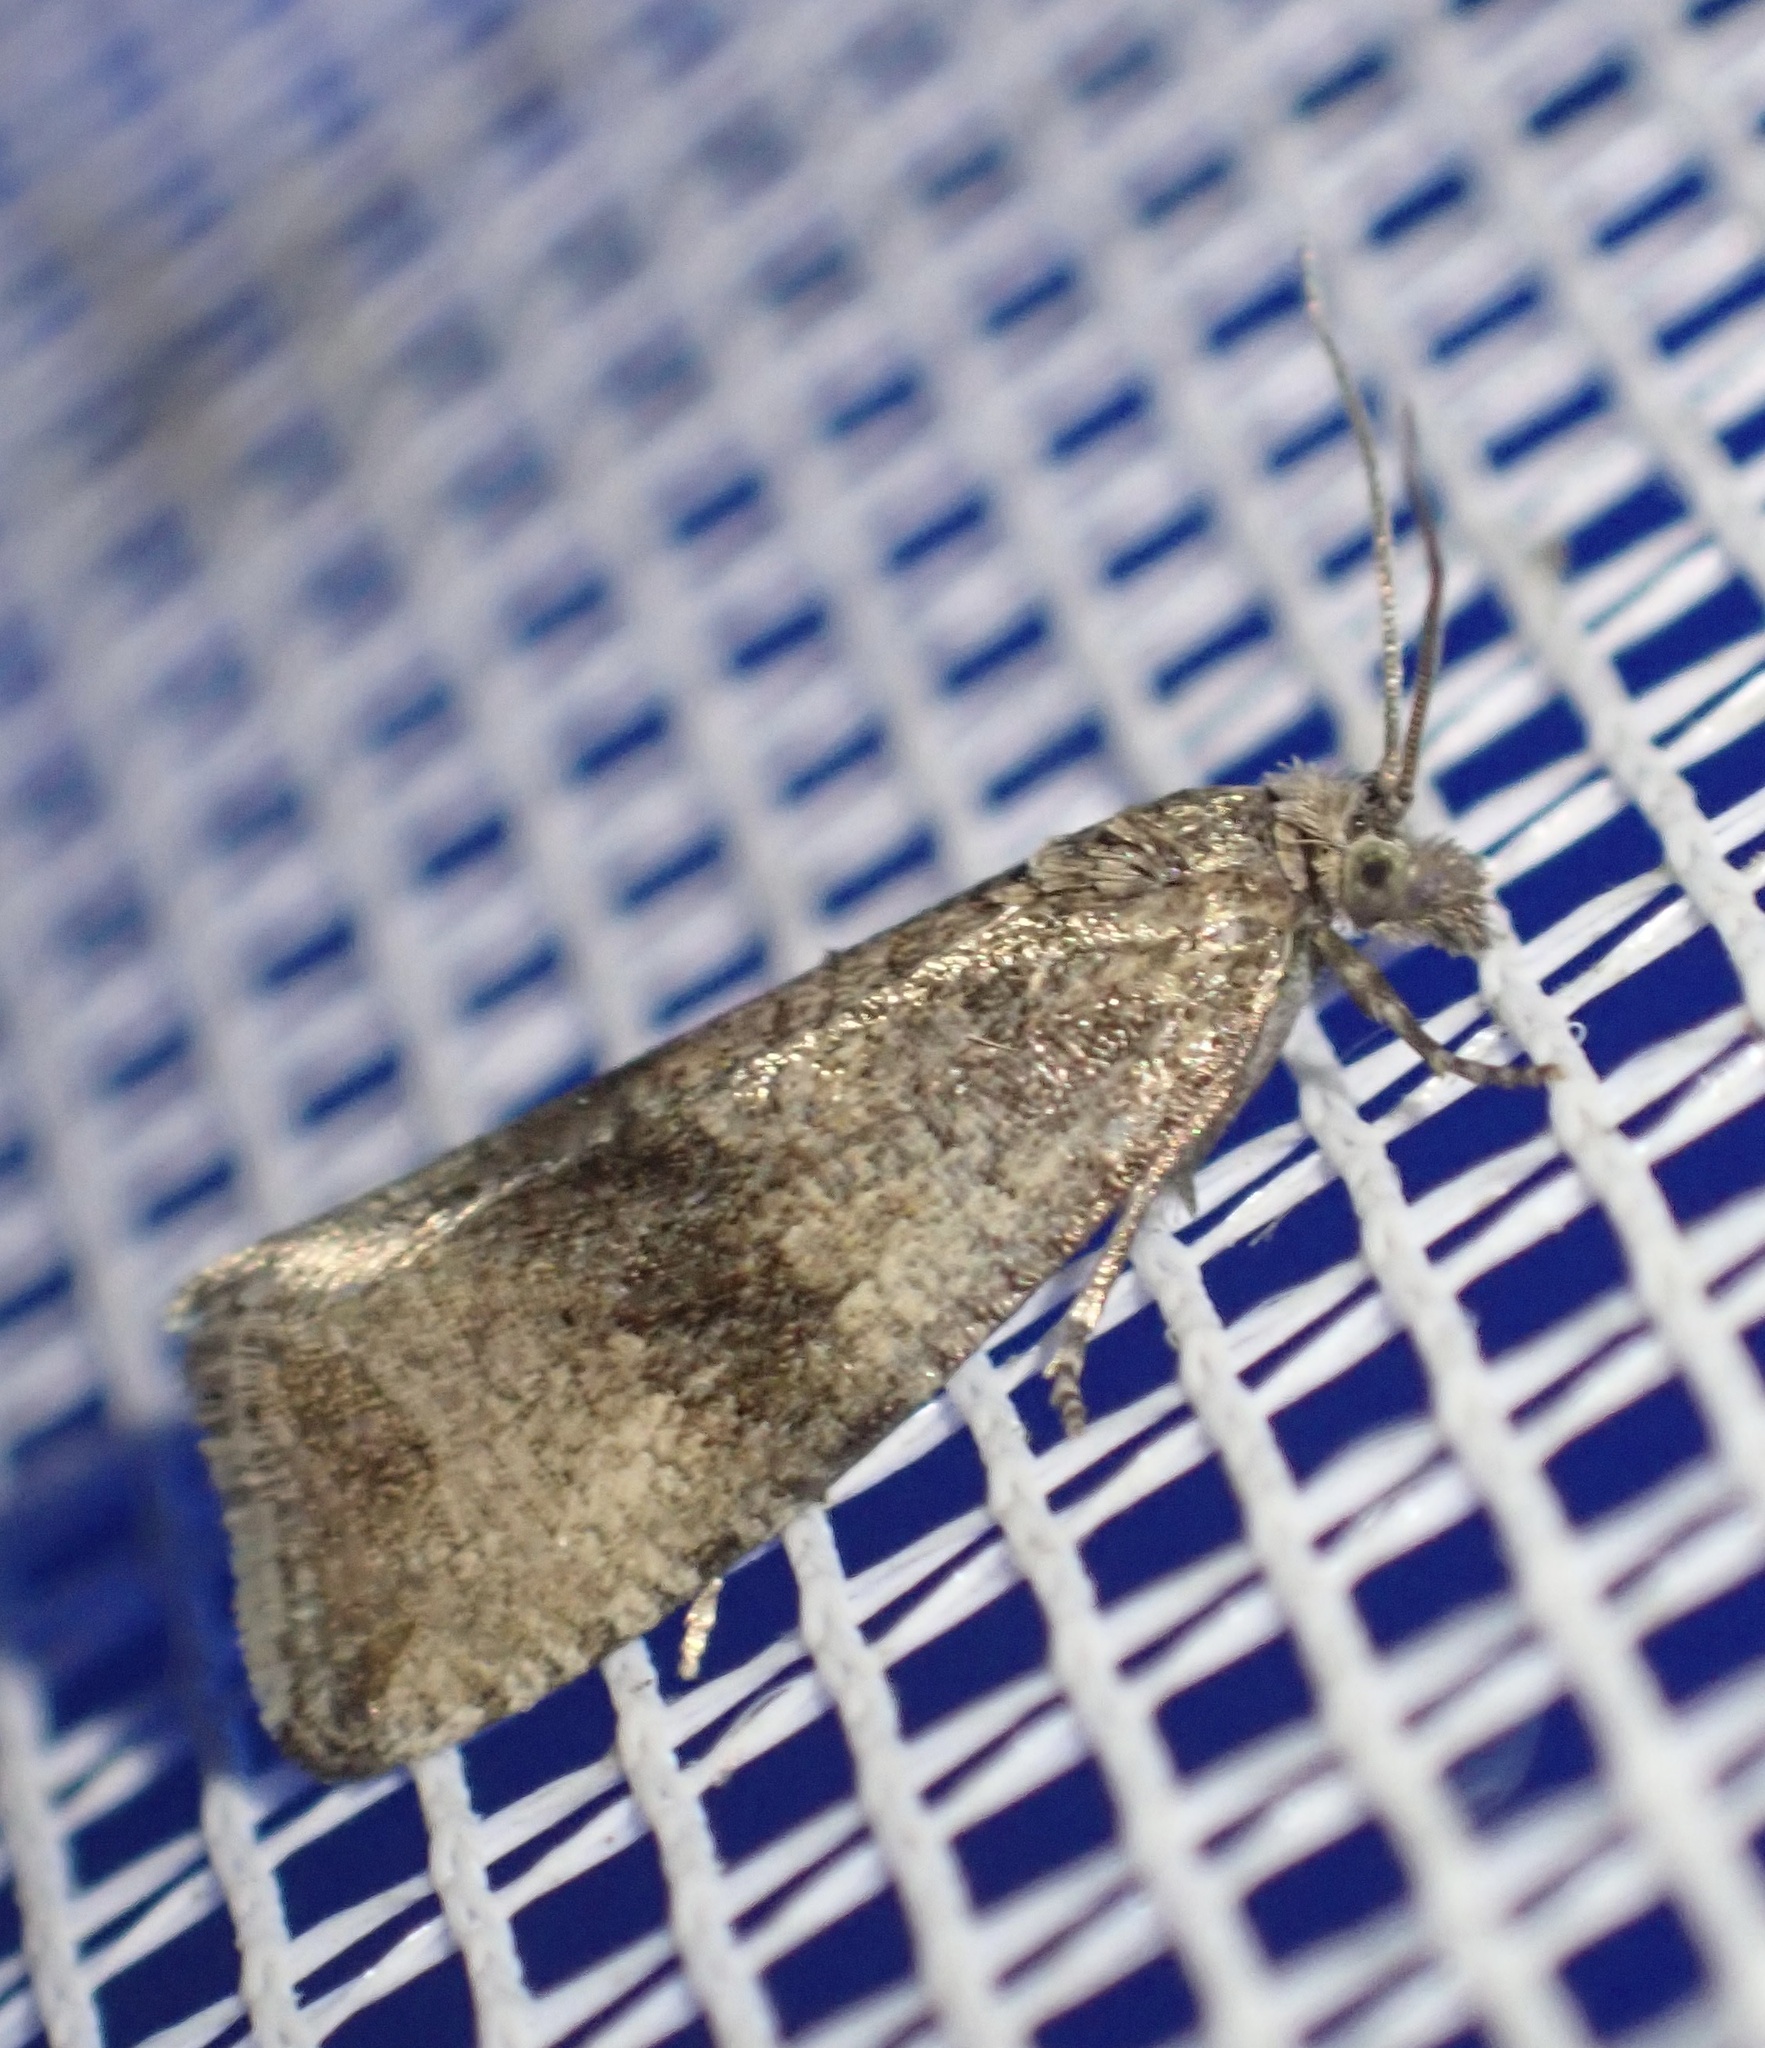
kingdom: Animalia
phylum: Arthropoda
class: Insecta
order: Lepidoptera
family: Tortricidae
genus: Celypha
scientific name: Celypha striana
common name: Barred marble
